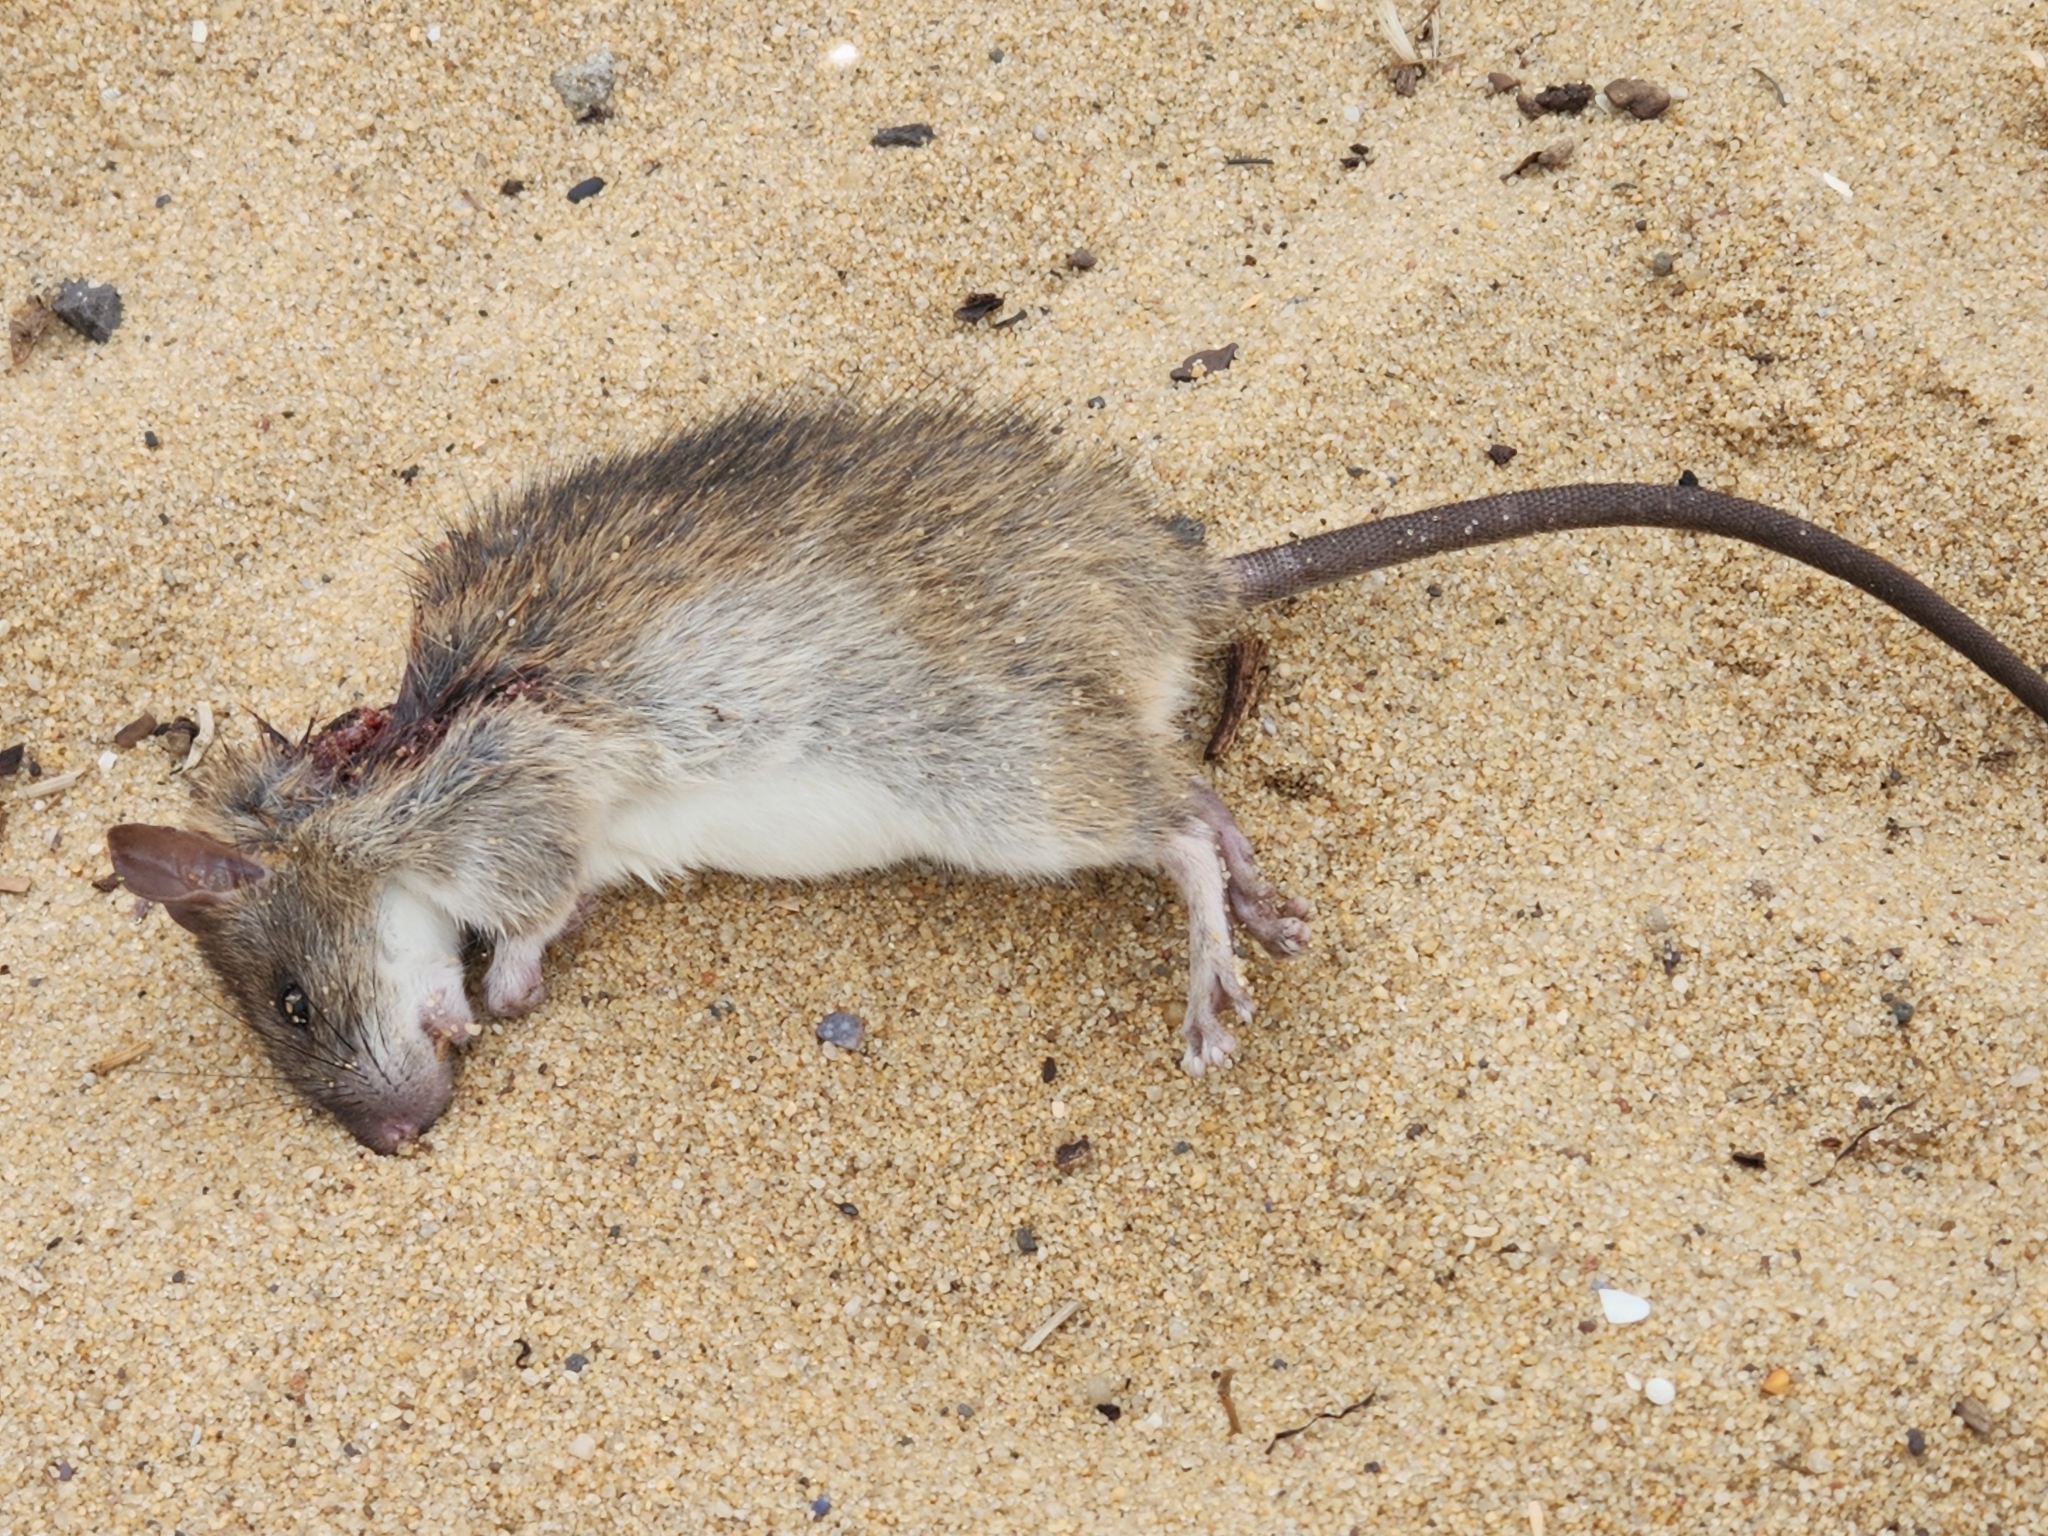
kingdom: Animalia
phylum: Chordata
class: Mammalia
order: Rodentia
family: Muridae
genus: Rattus
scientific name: Rattus rattus
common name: Black rat
